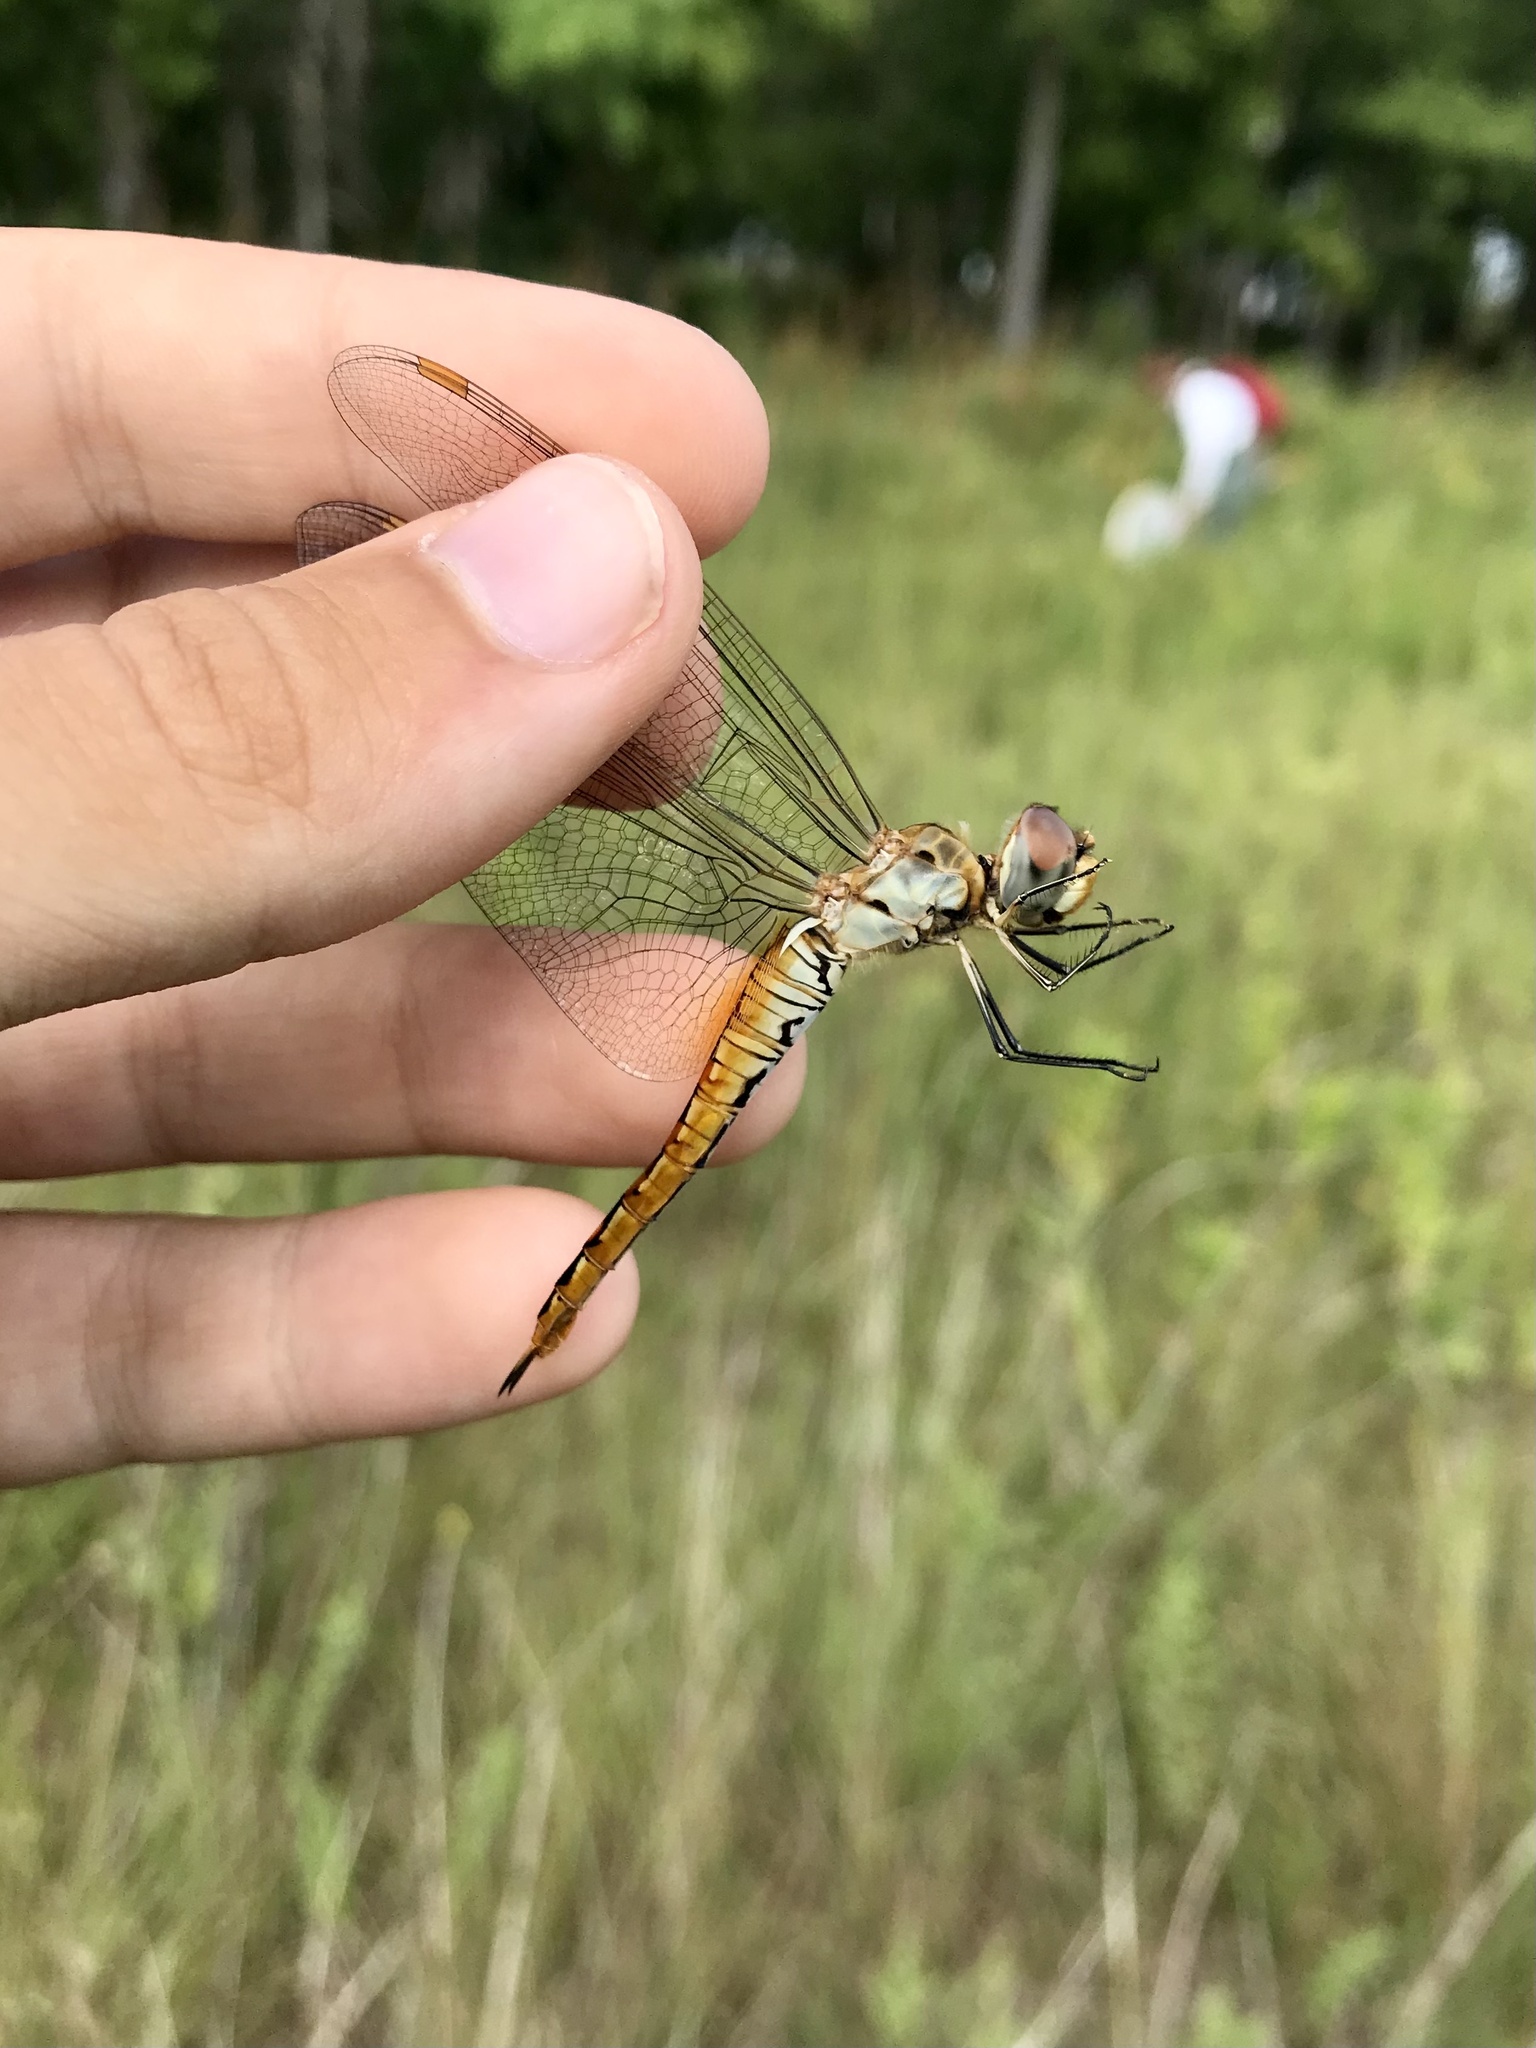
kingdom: Animalia
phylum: Arthropoda
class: Insecta
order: Odonata
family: Libellulidae
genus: Pantala
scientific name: Pantala flavescens
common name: Wandering glider
